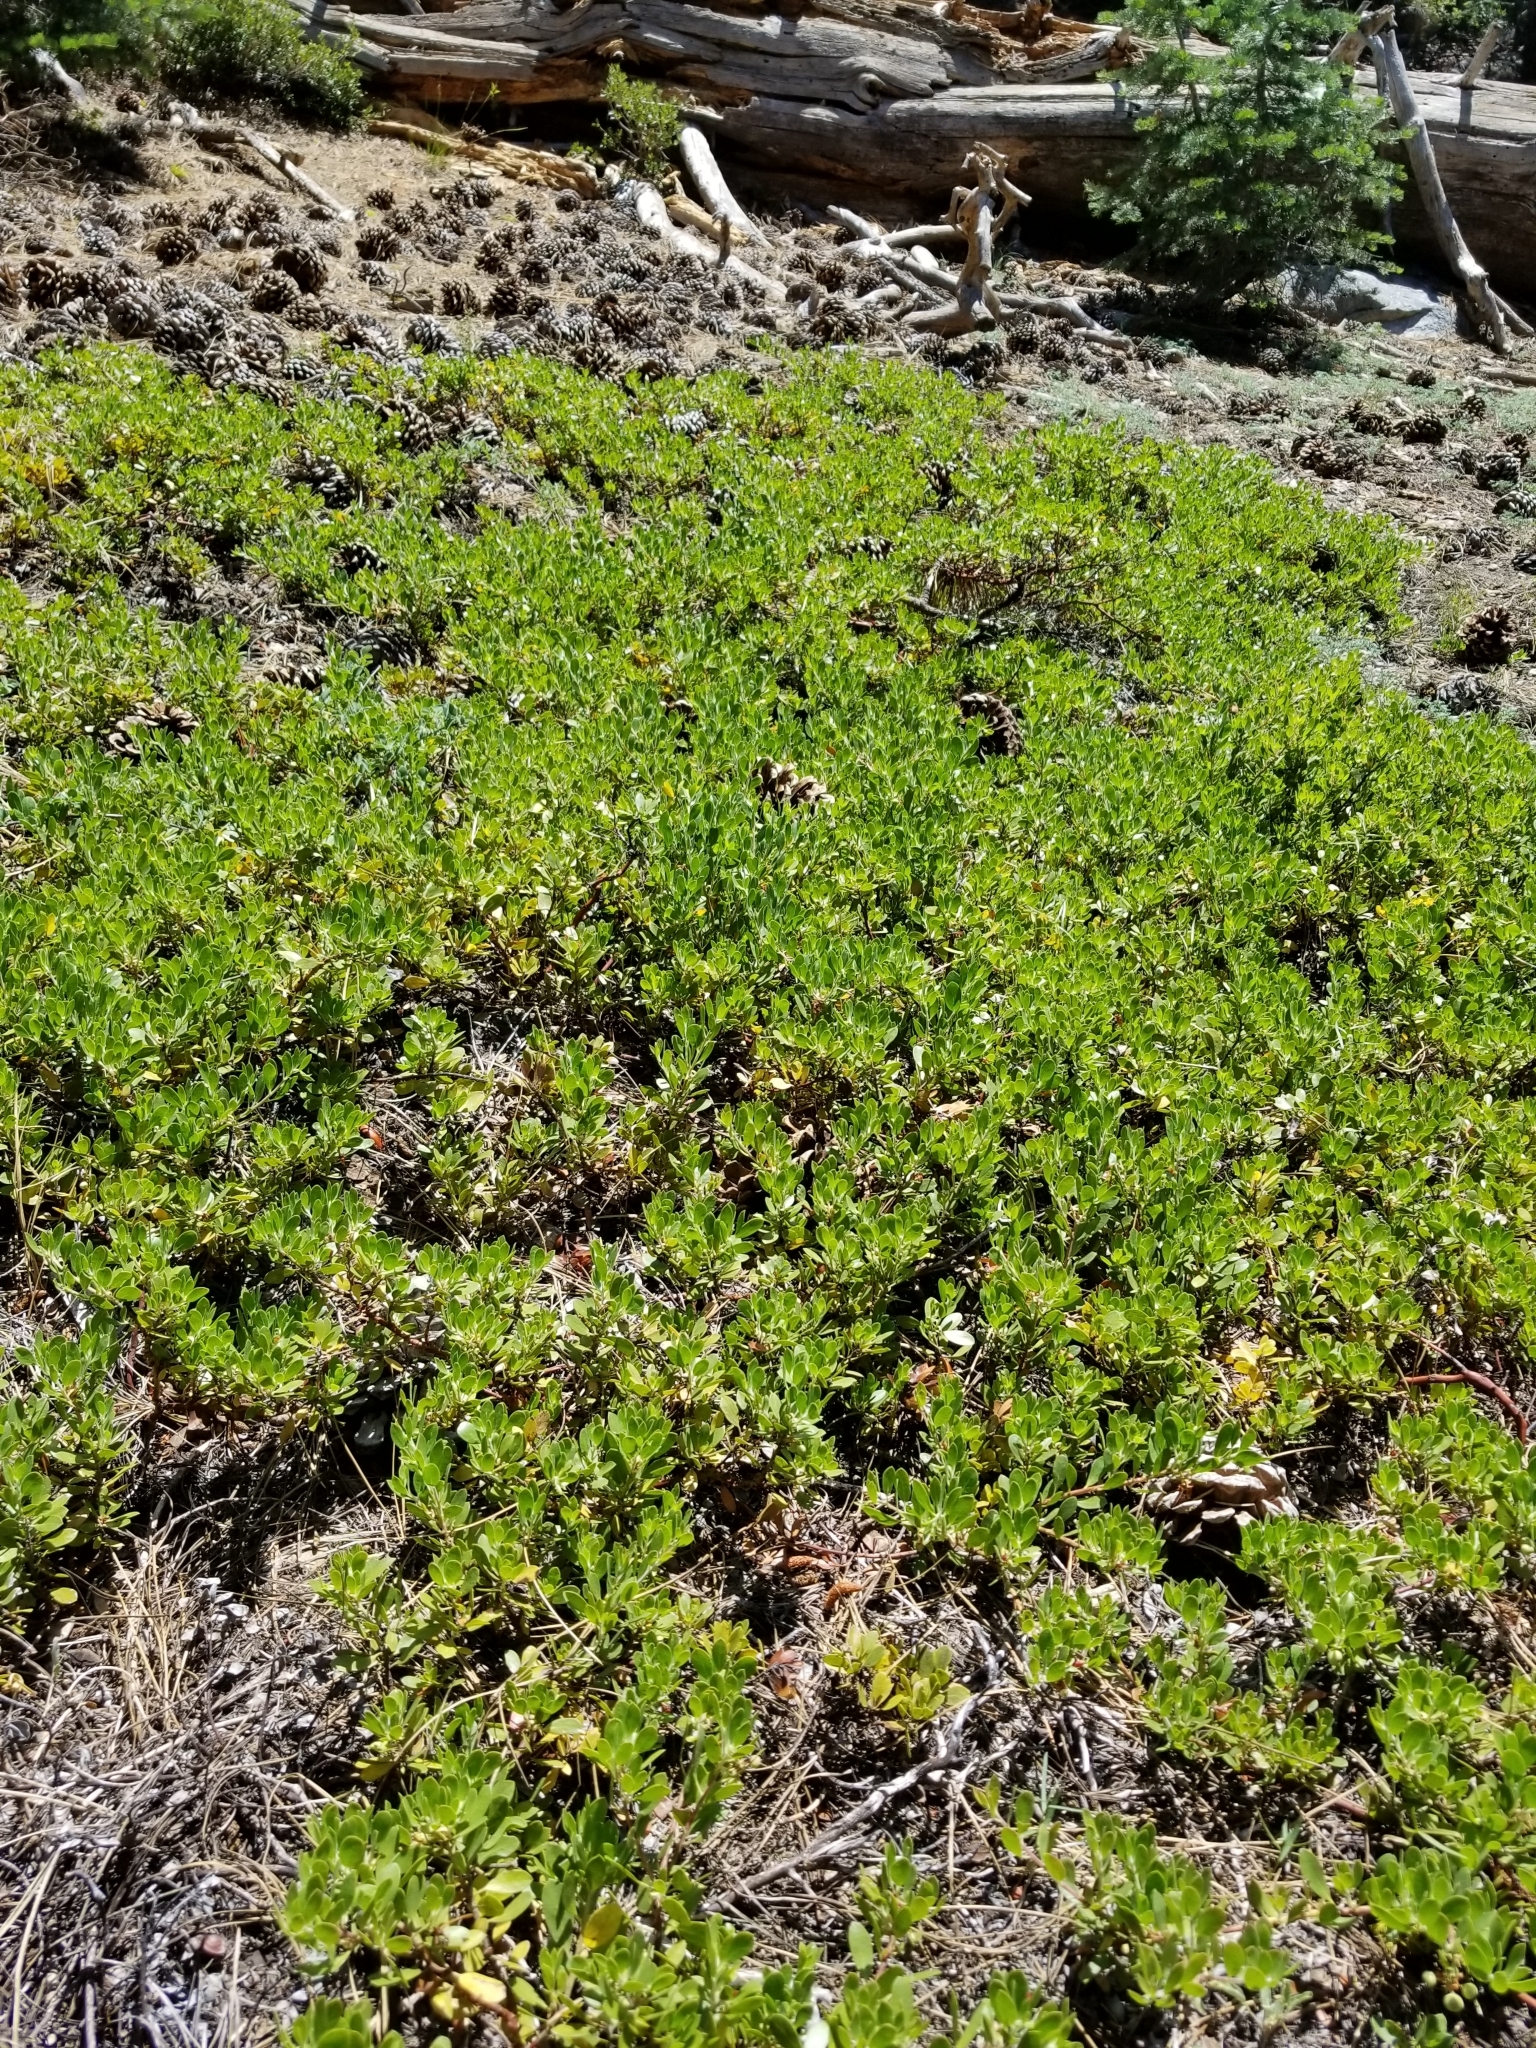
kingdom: Plantae
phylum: Tracheophyta
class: Magnoliopsida
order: Ericales
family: Ericaceae
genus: Arctostaphylos
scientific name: Arctostaphylos nevadensis
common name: Pinemat manzanita
